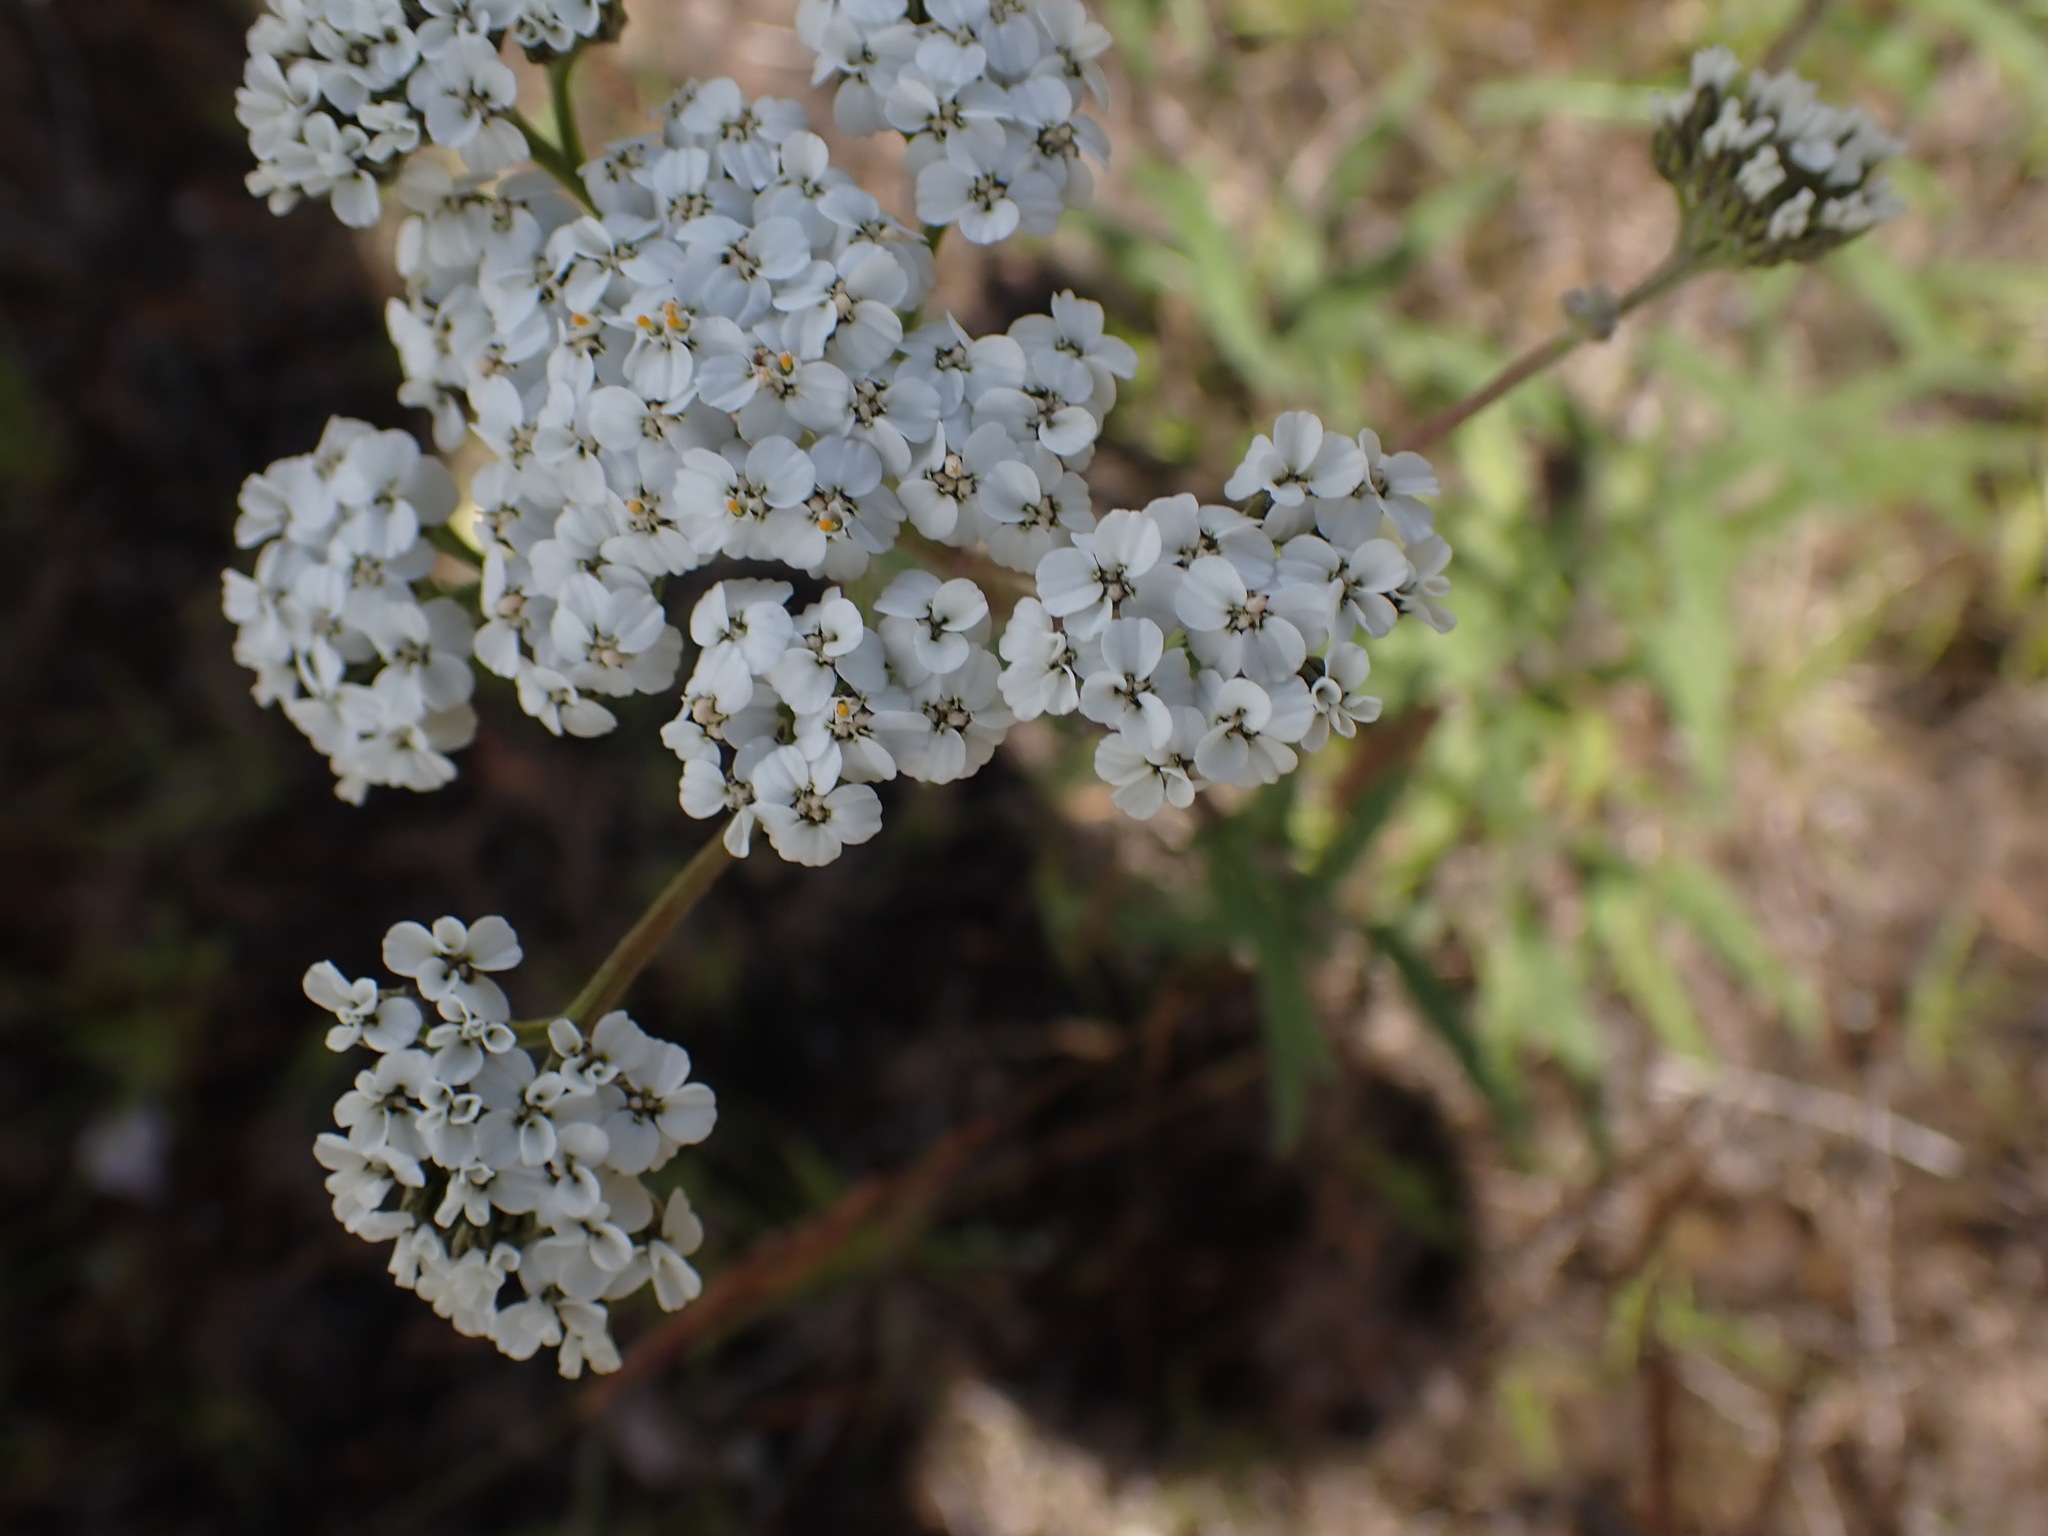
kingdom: Plantae
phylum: Tracheophyta
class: Magnoliopsida
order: Asterales
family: Asteraceae
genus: Achillea
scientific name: Achillea millefolium
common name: Yarrow
